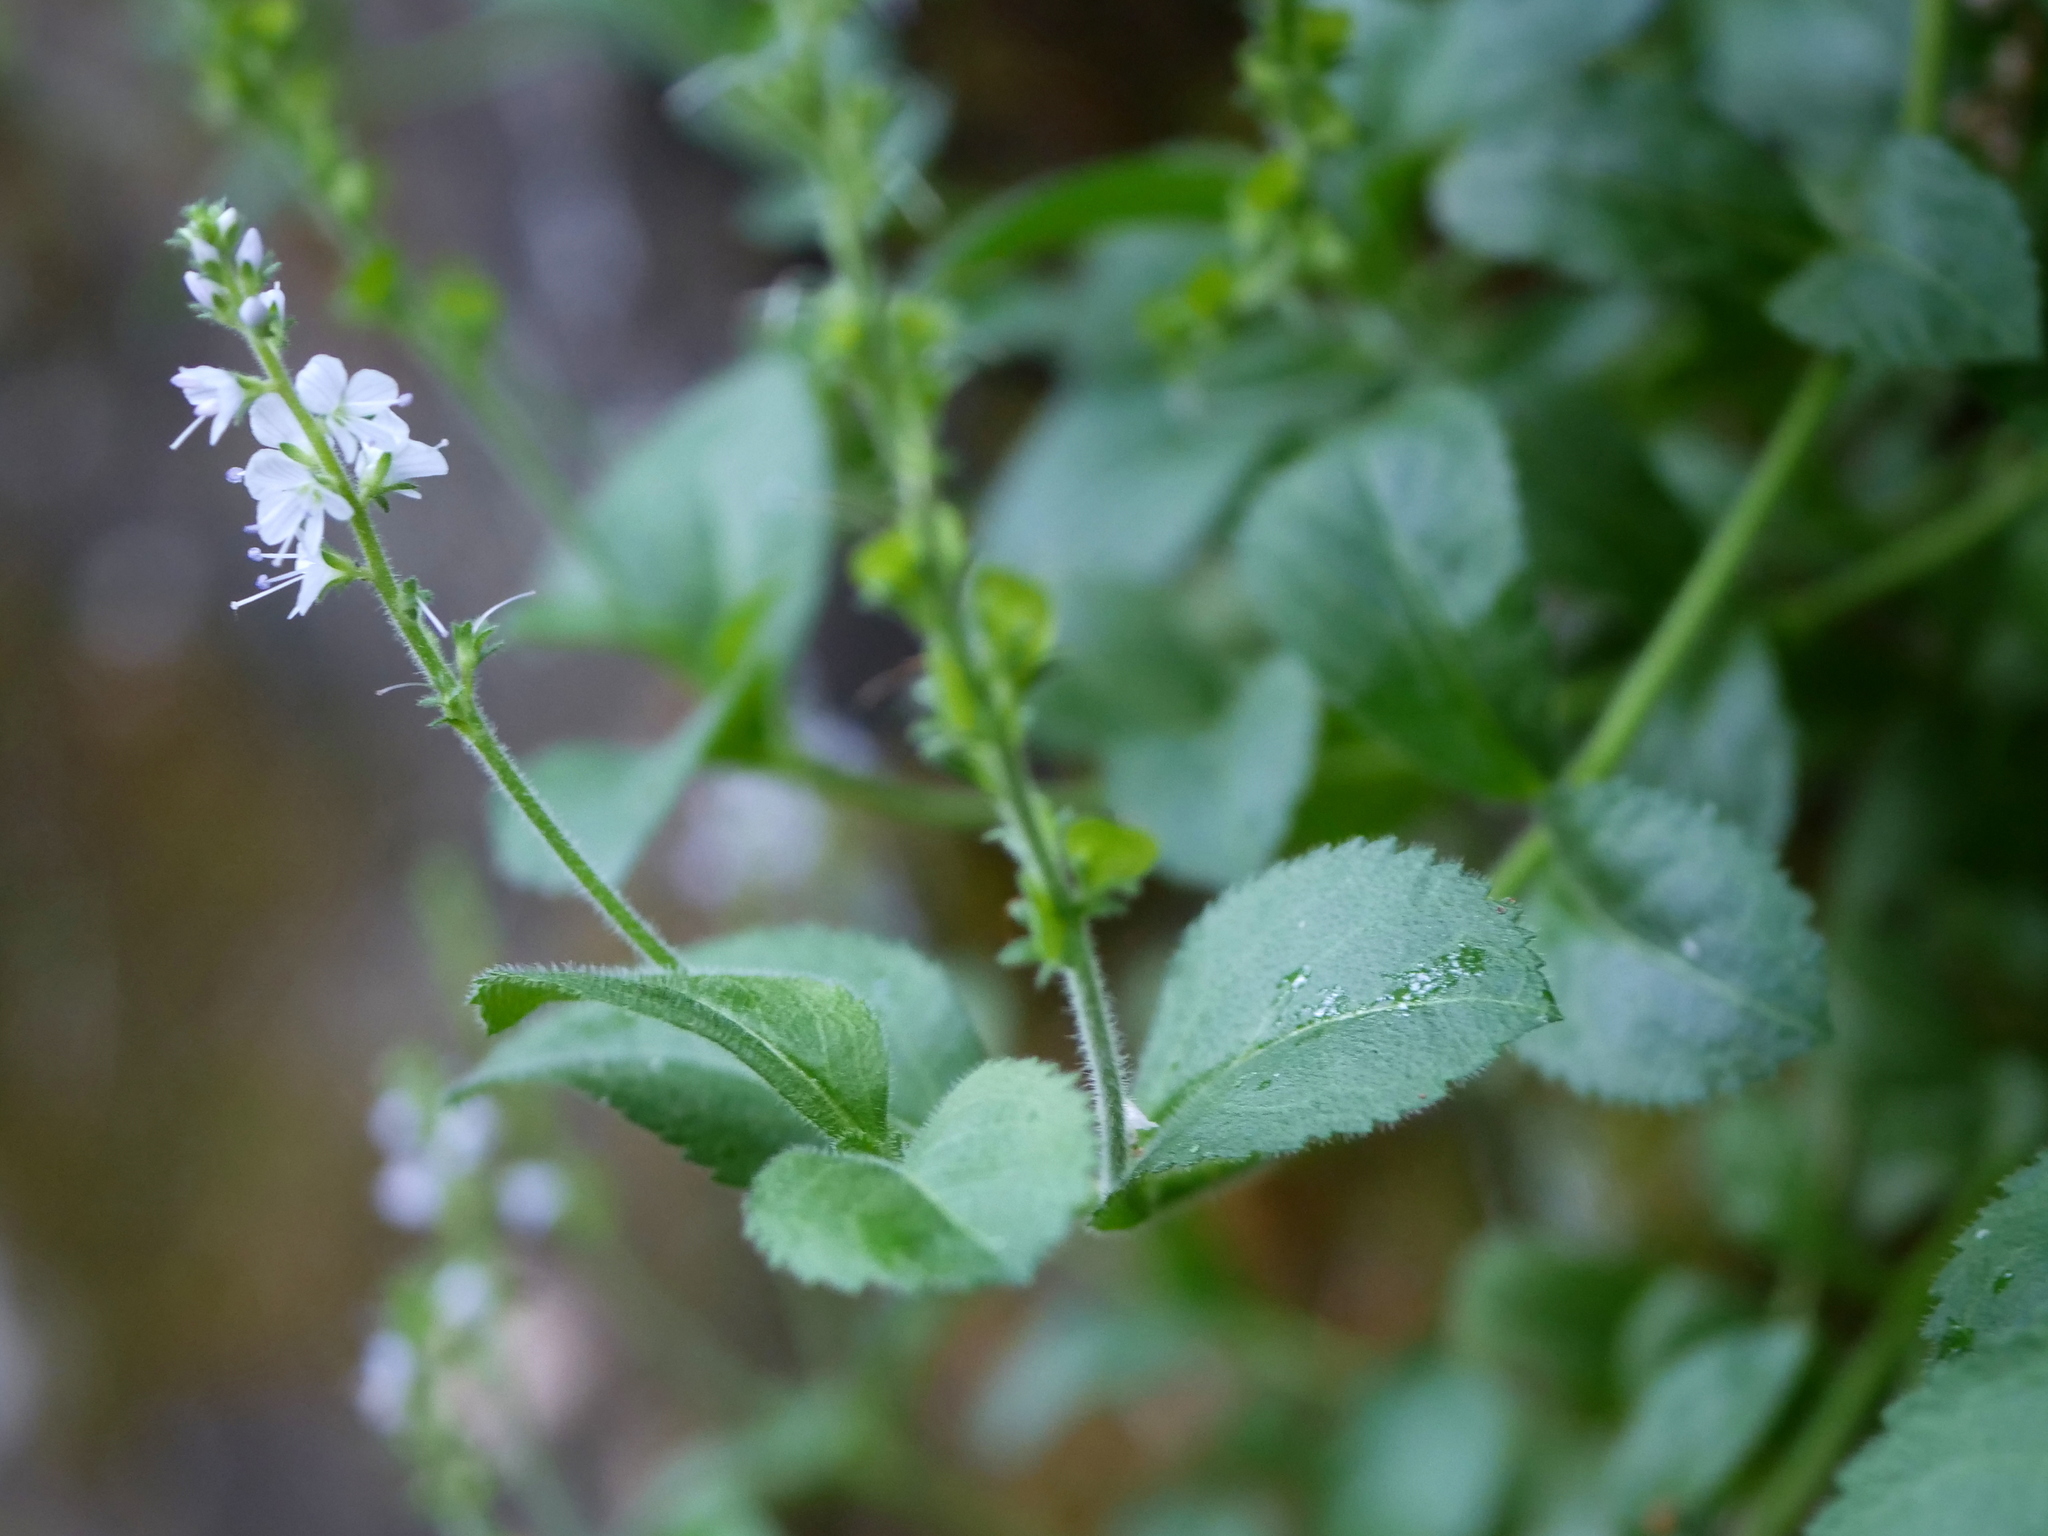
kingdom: Plantae
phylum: Tracheophyta
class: Magnoliopsida
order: Lamiales
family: Plantaginaceae
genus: Veronica
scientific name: Veronica officinalis
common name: Common speedwell
